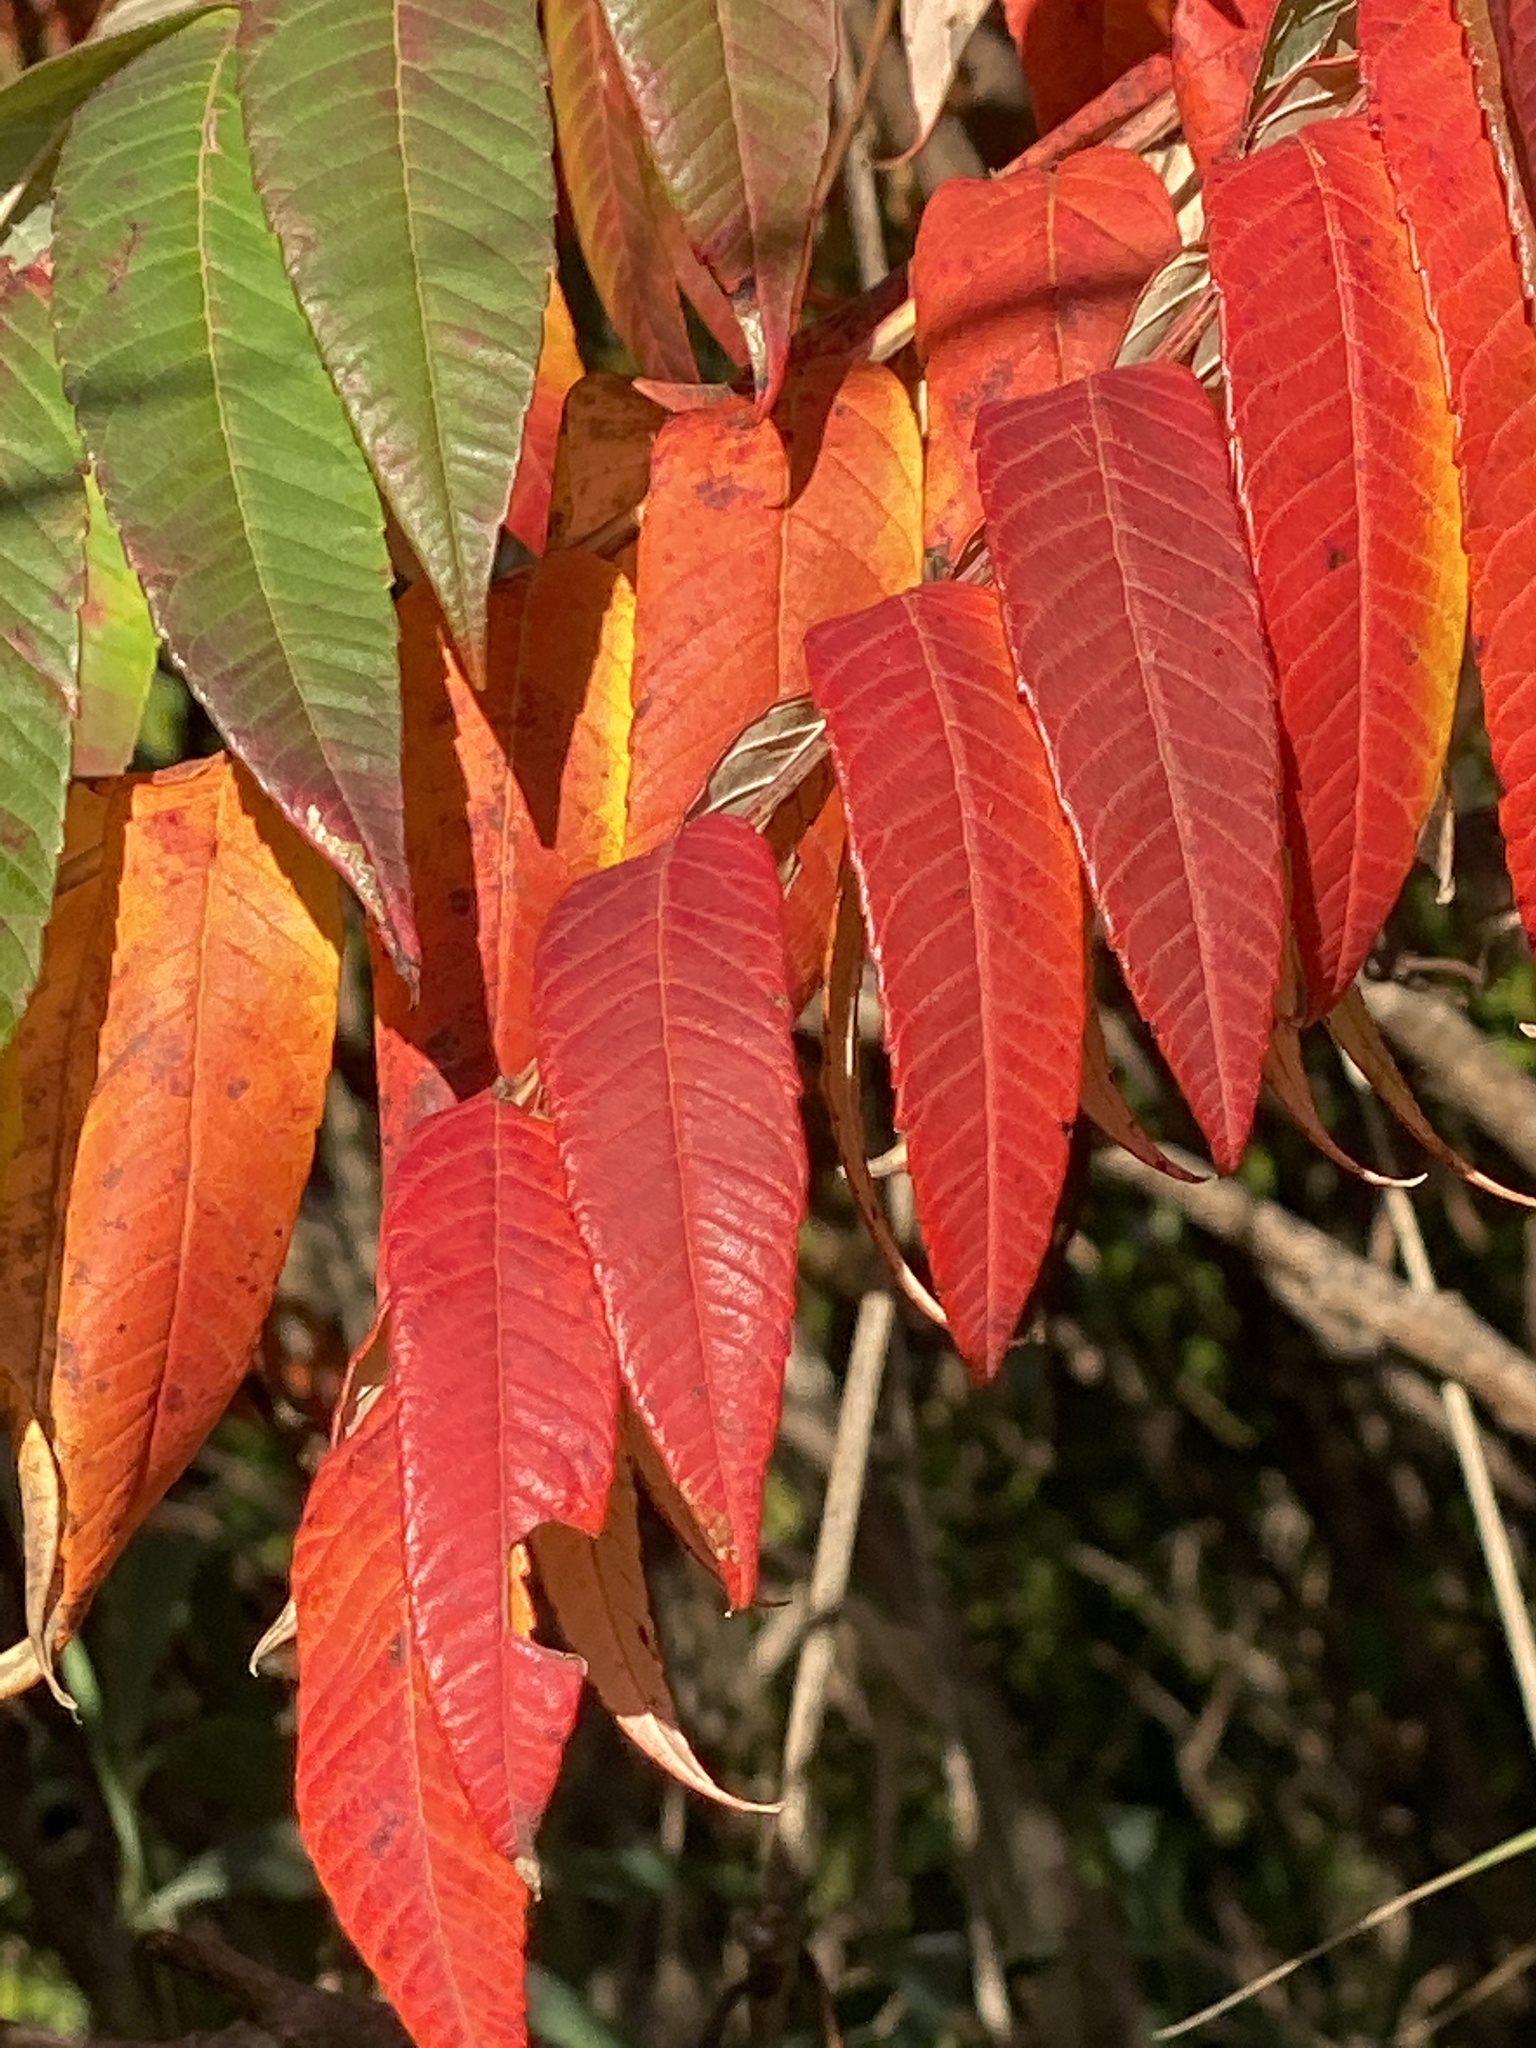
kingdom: Plantae
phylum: Tracheophyta
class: Magnoliopsida
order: Sapindales
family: Anacardiaceae
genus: Rhus
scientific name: Rhus glabra
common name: Scarlet sumac
